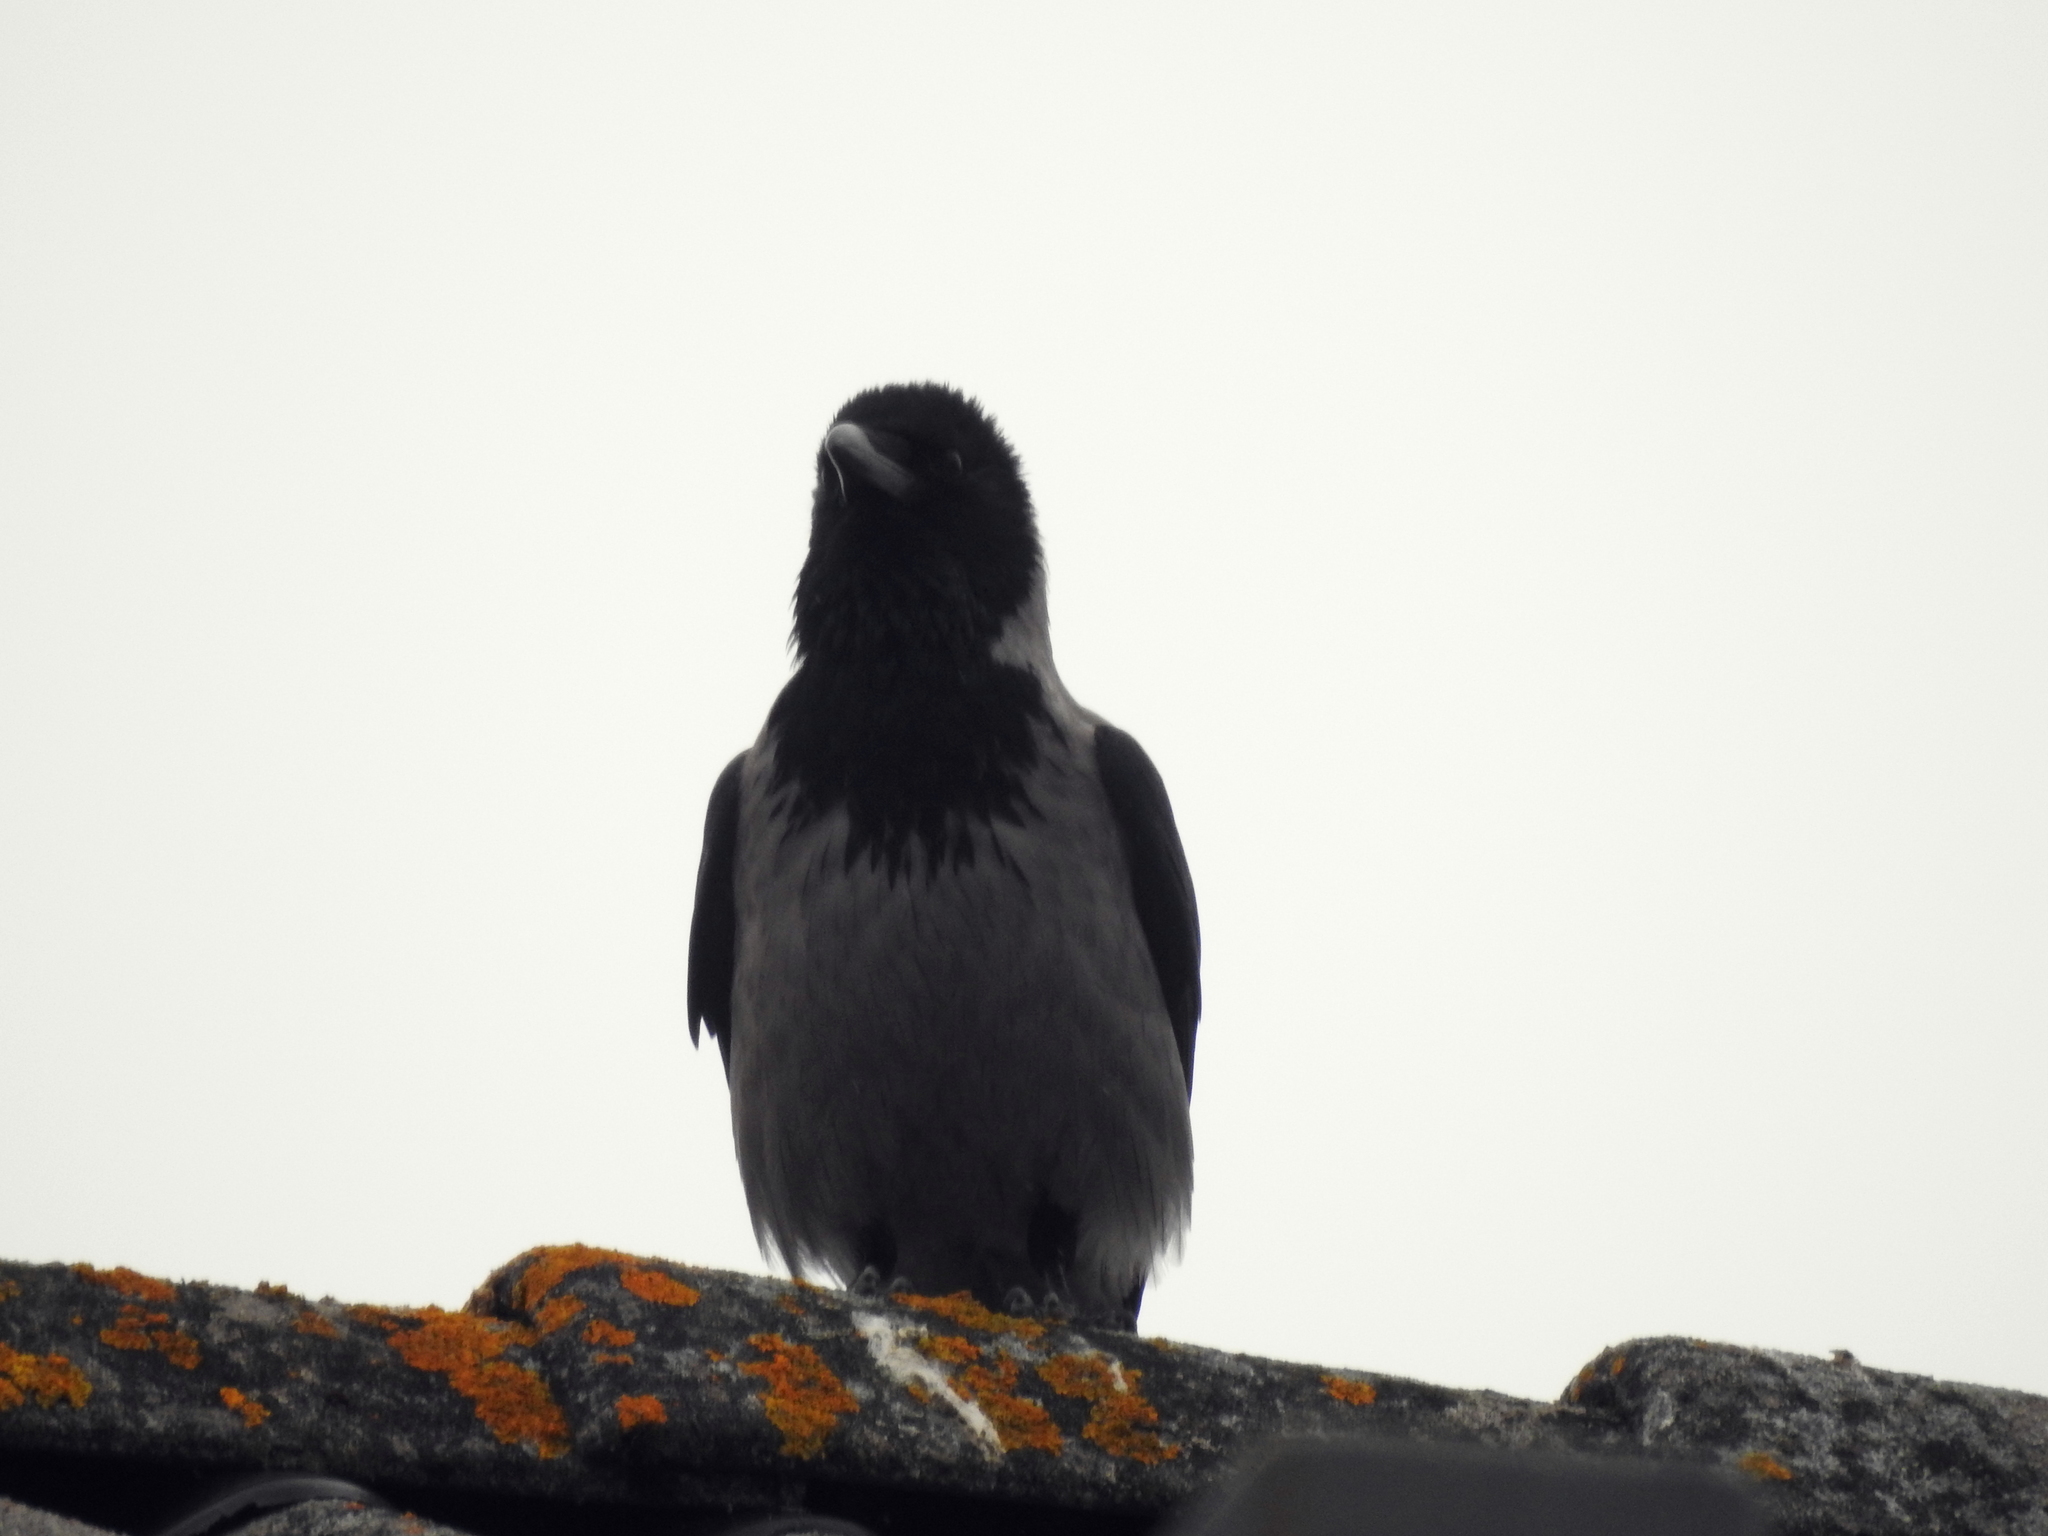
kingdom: Animalia
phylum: Chordata
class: Aves
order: Passeriformes
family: Corvidae
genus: Corvus
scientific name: Corvus cornix
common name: Hooded crow
